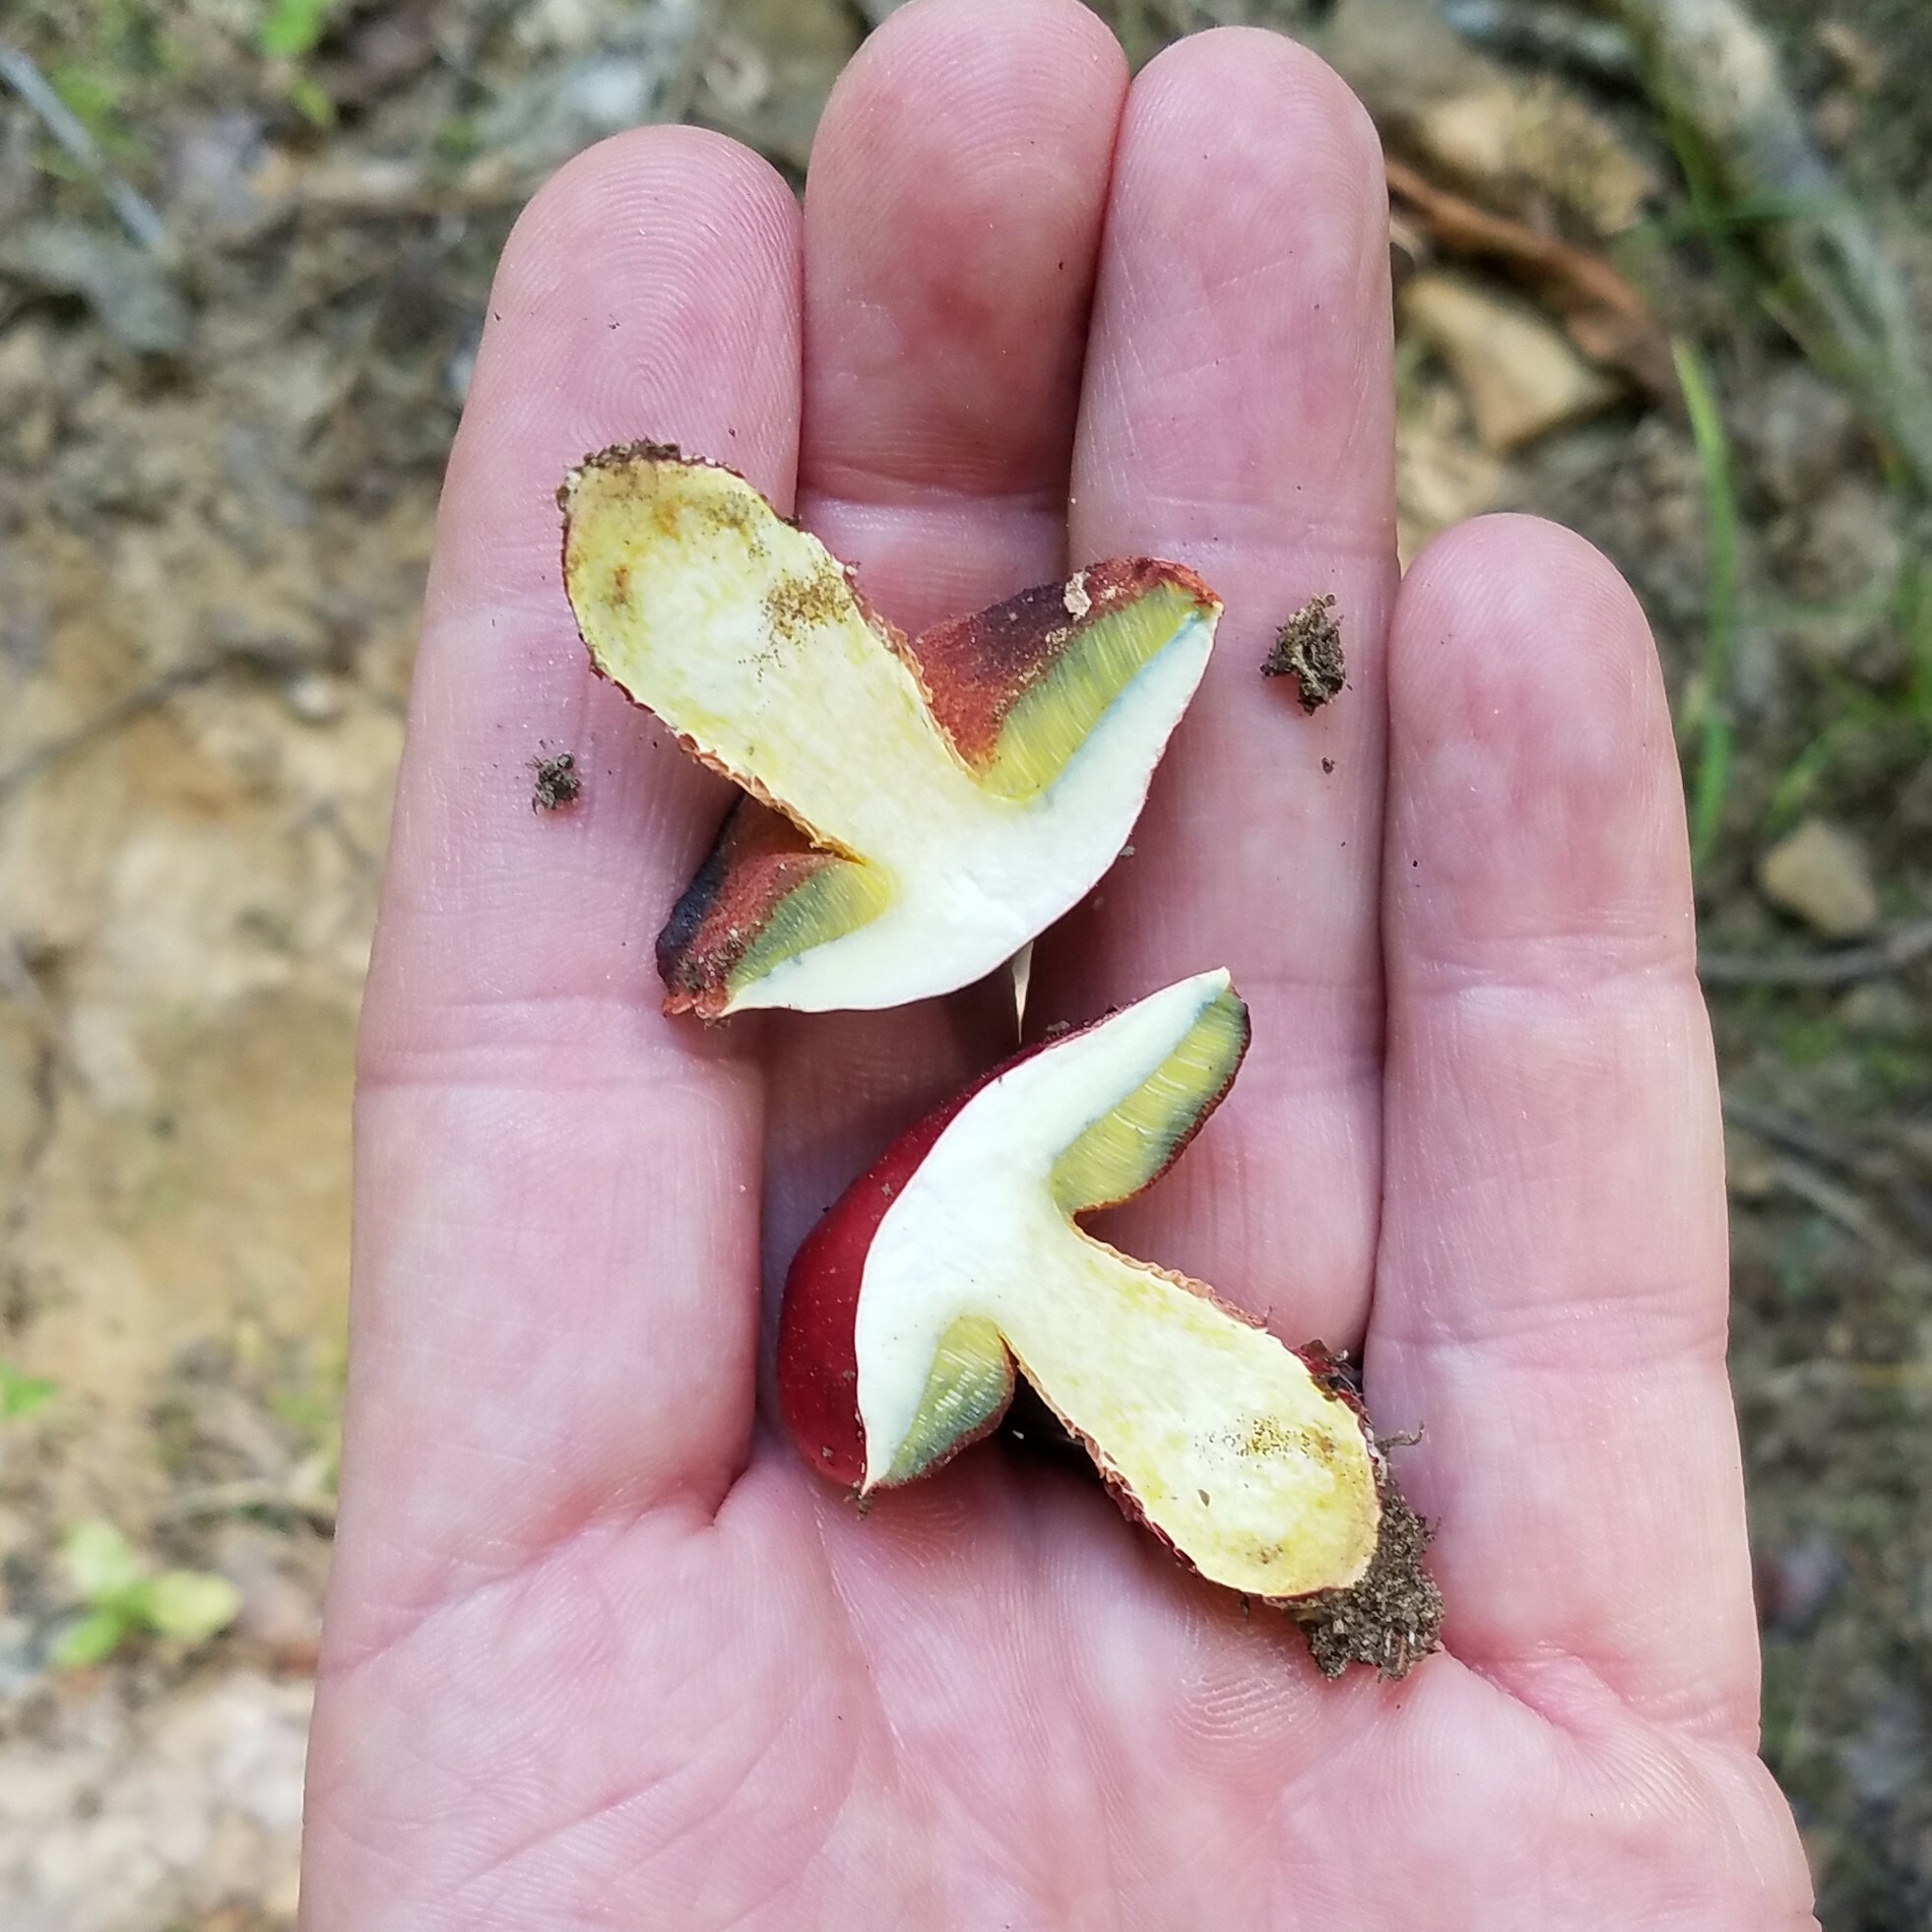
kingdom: Fungi
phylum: Basidiomycota
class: Agaricomycetes
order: Boletales
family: Boletaceae
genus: Butyriboletus
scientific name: Butyriboletus frostii
